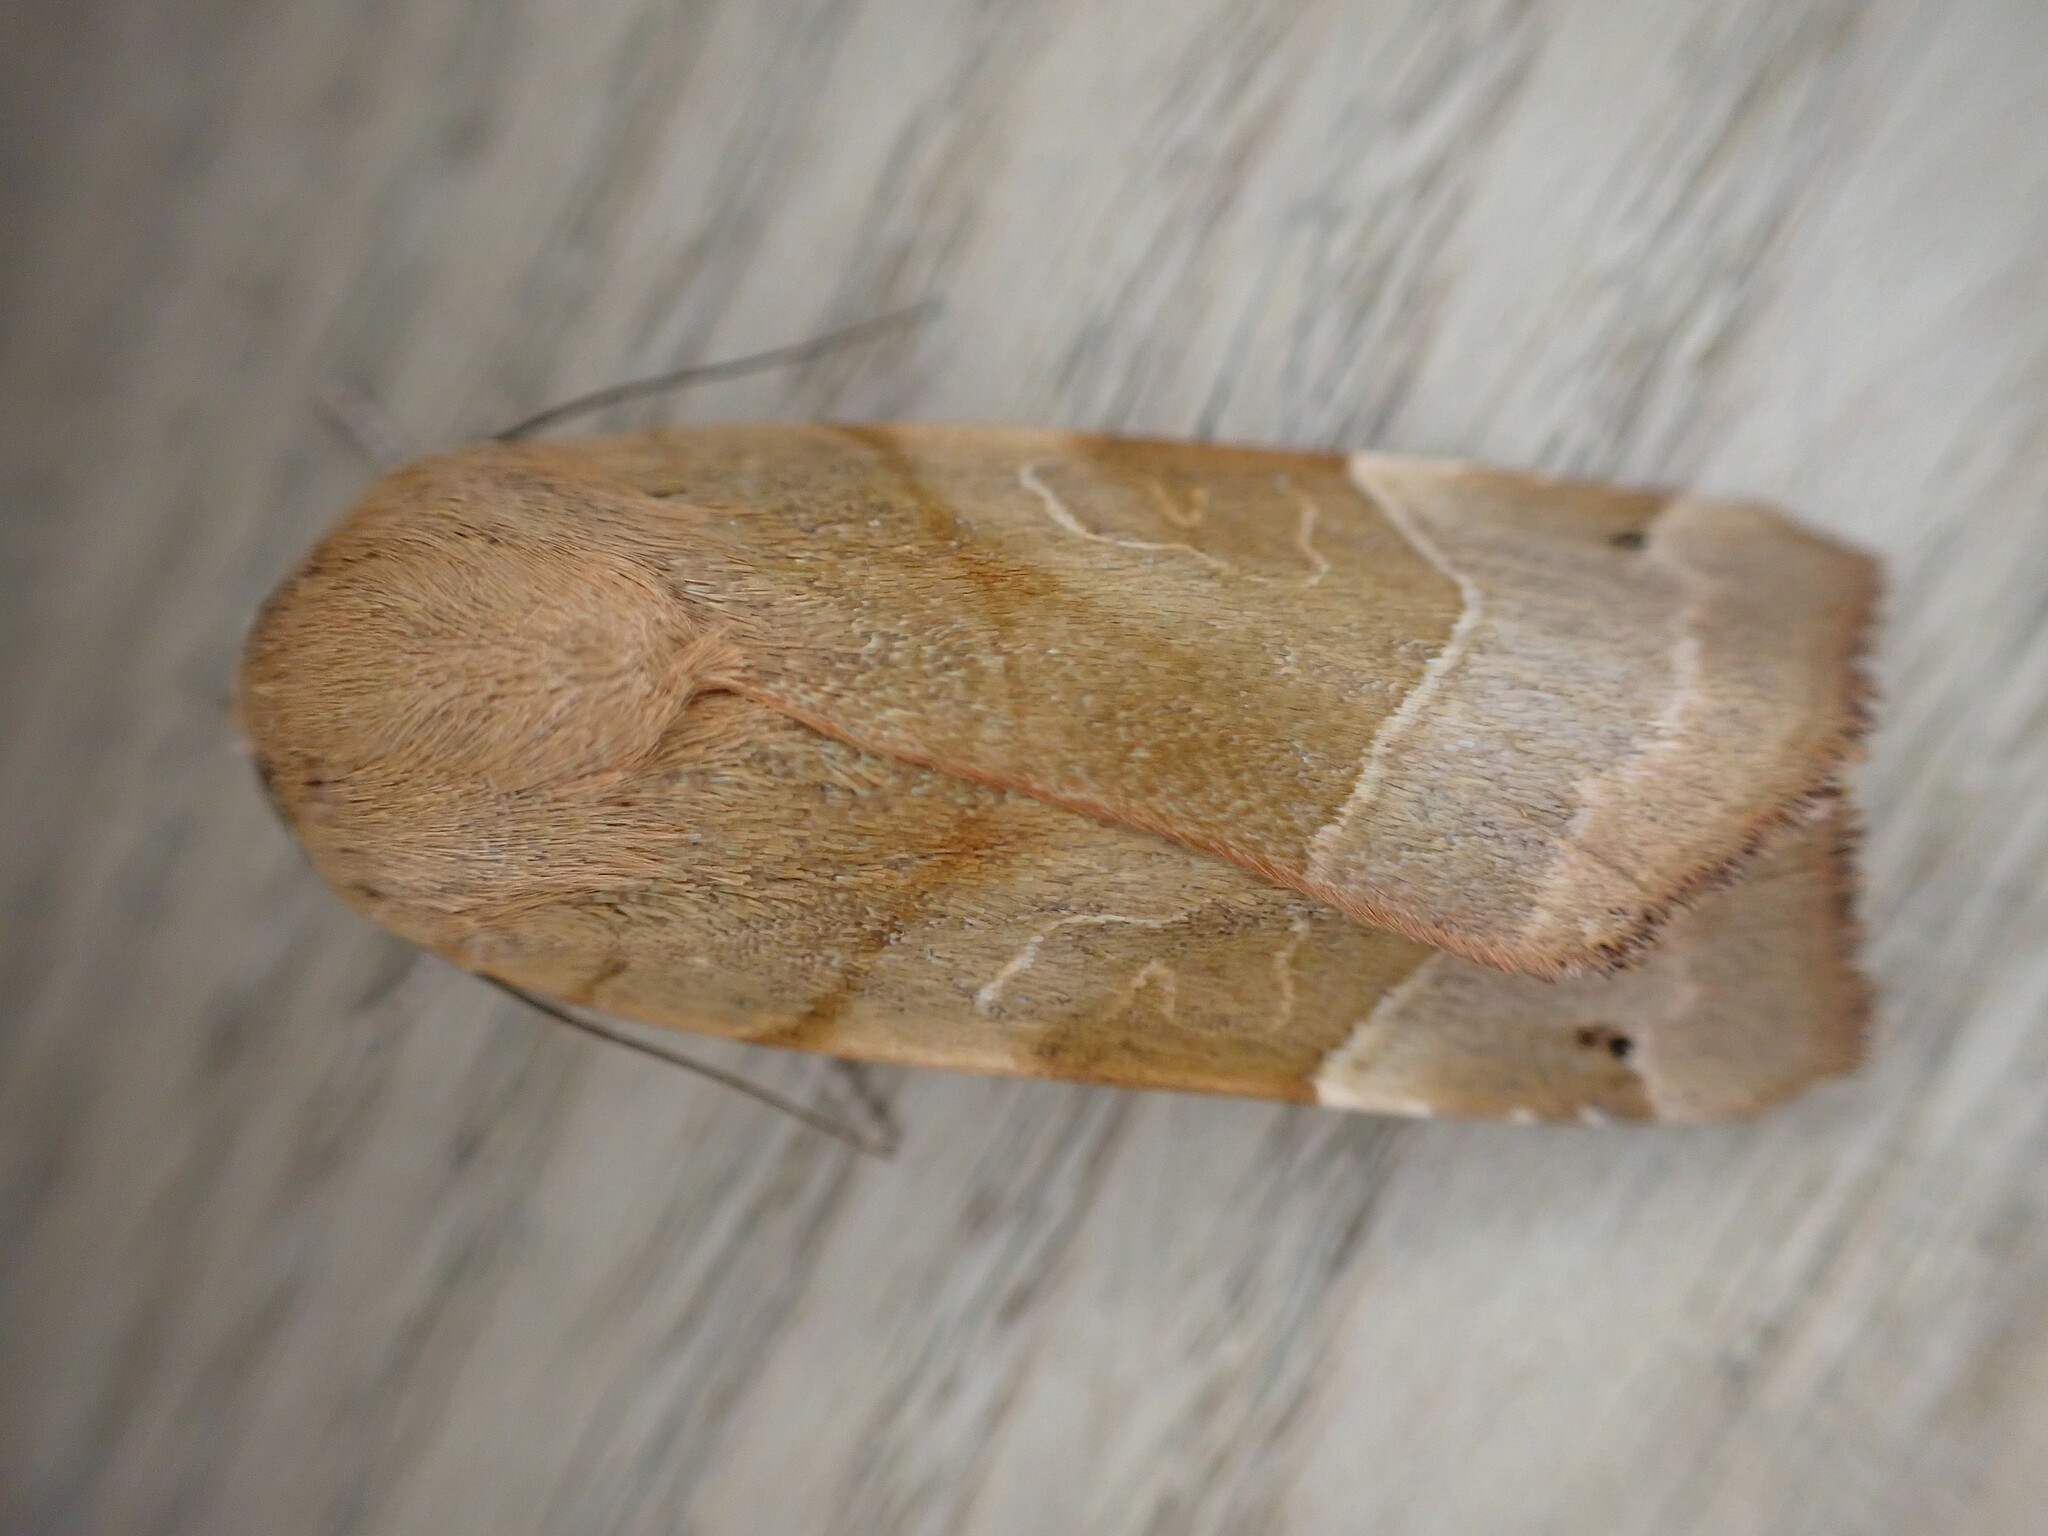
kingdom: Animalia
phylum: Arthropoda
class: Insecta
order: Lepidoptera
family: Noctuidae
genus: Noctua
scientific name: Noctua fimbriata
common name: Broad-bordered yellow underwing
